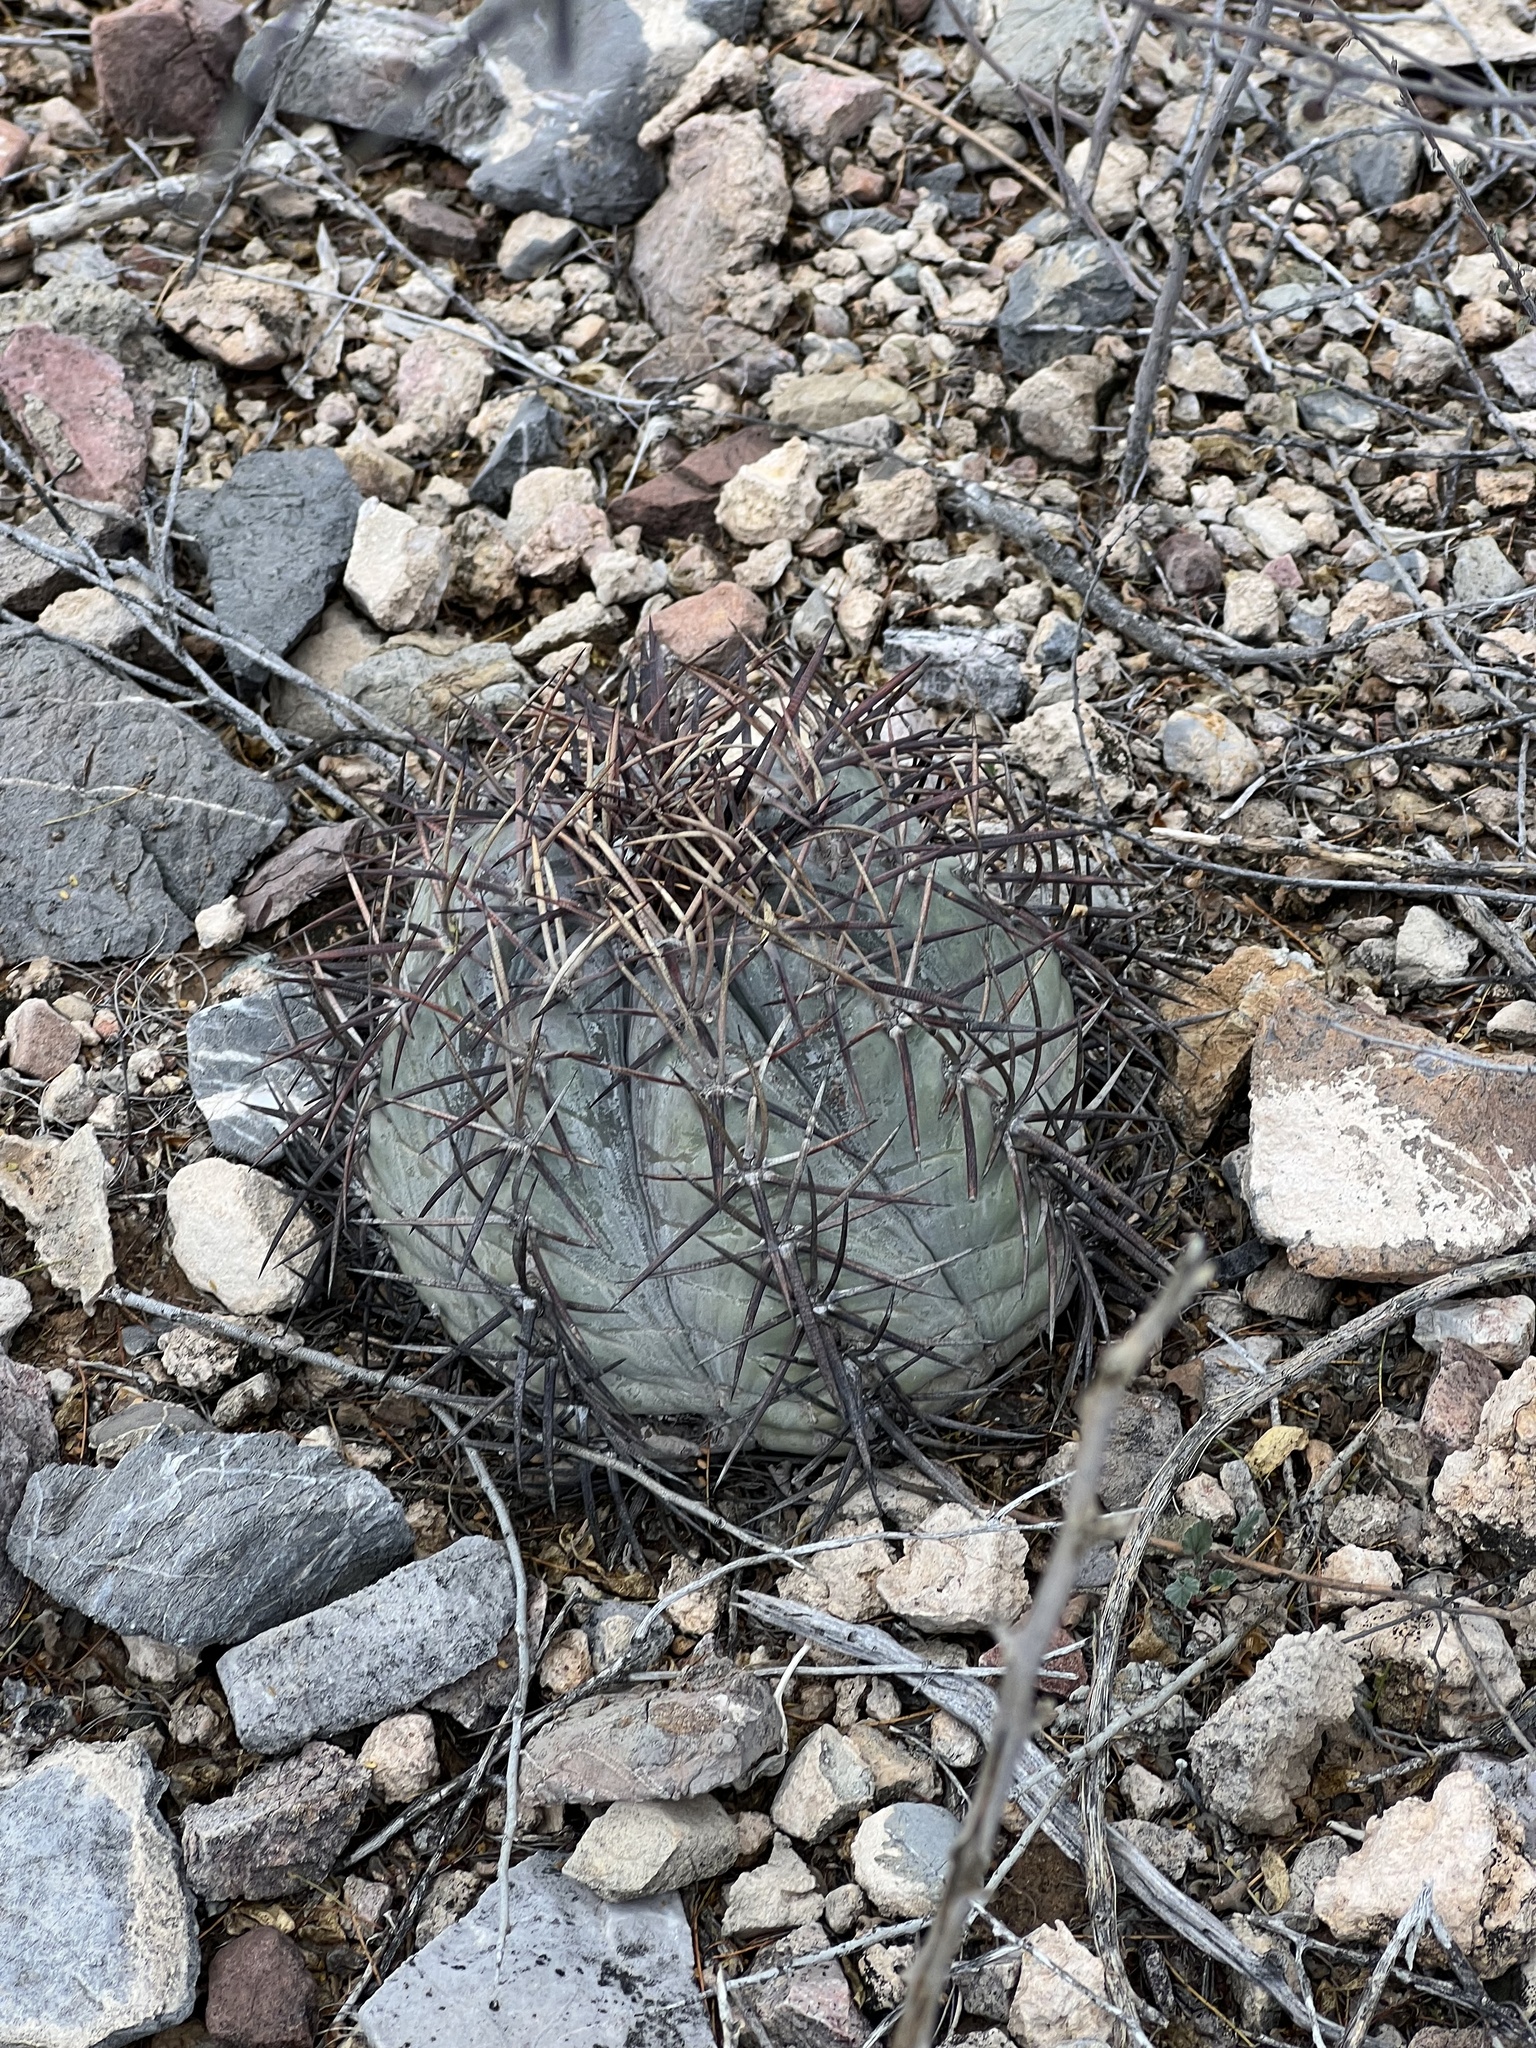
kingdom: Plantae
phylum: Tracheophyta
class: Magnoliopsida
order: Caryophyllales
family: Cactaceae
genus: Echinocactus
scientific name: Echinocactus horizonthalonius
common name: Devilshead
